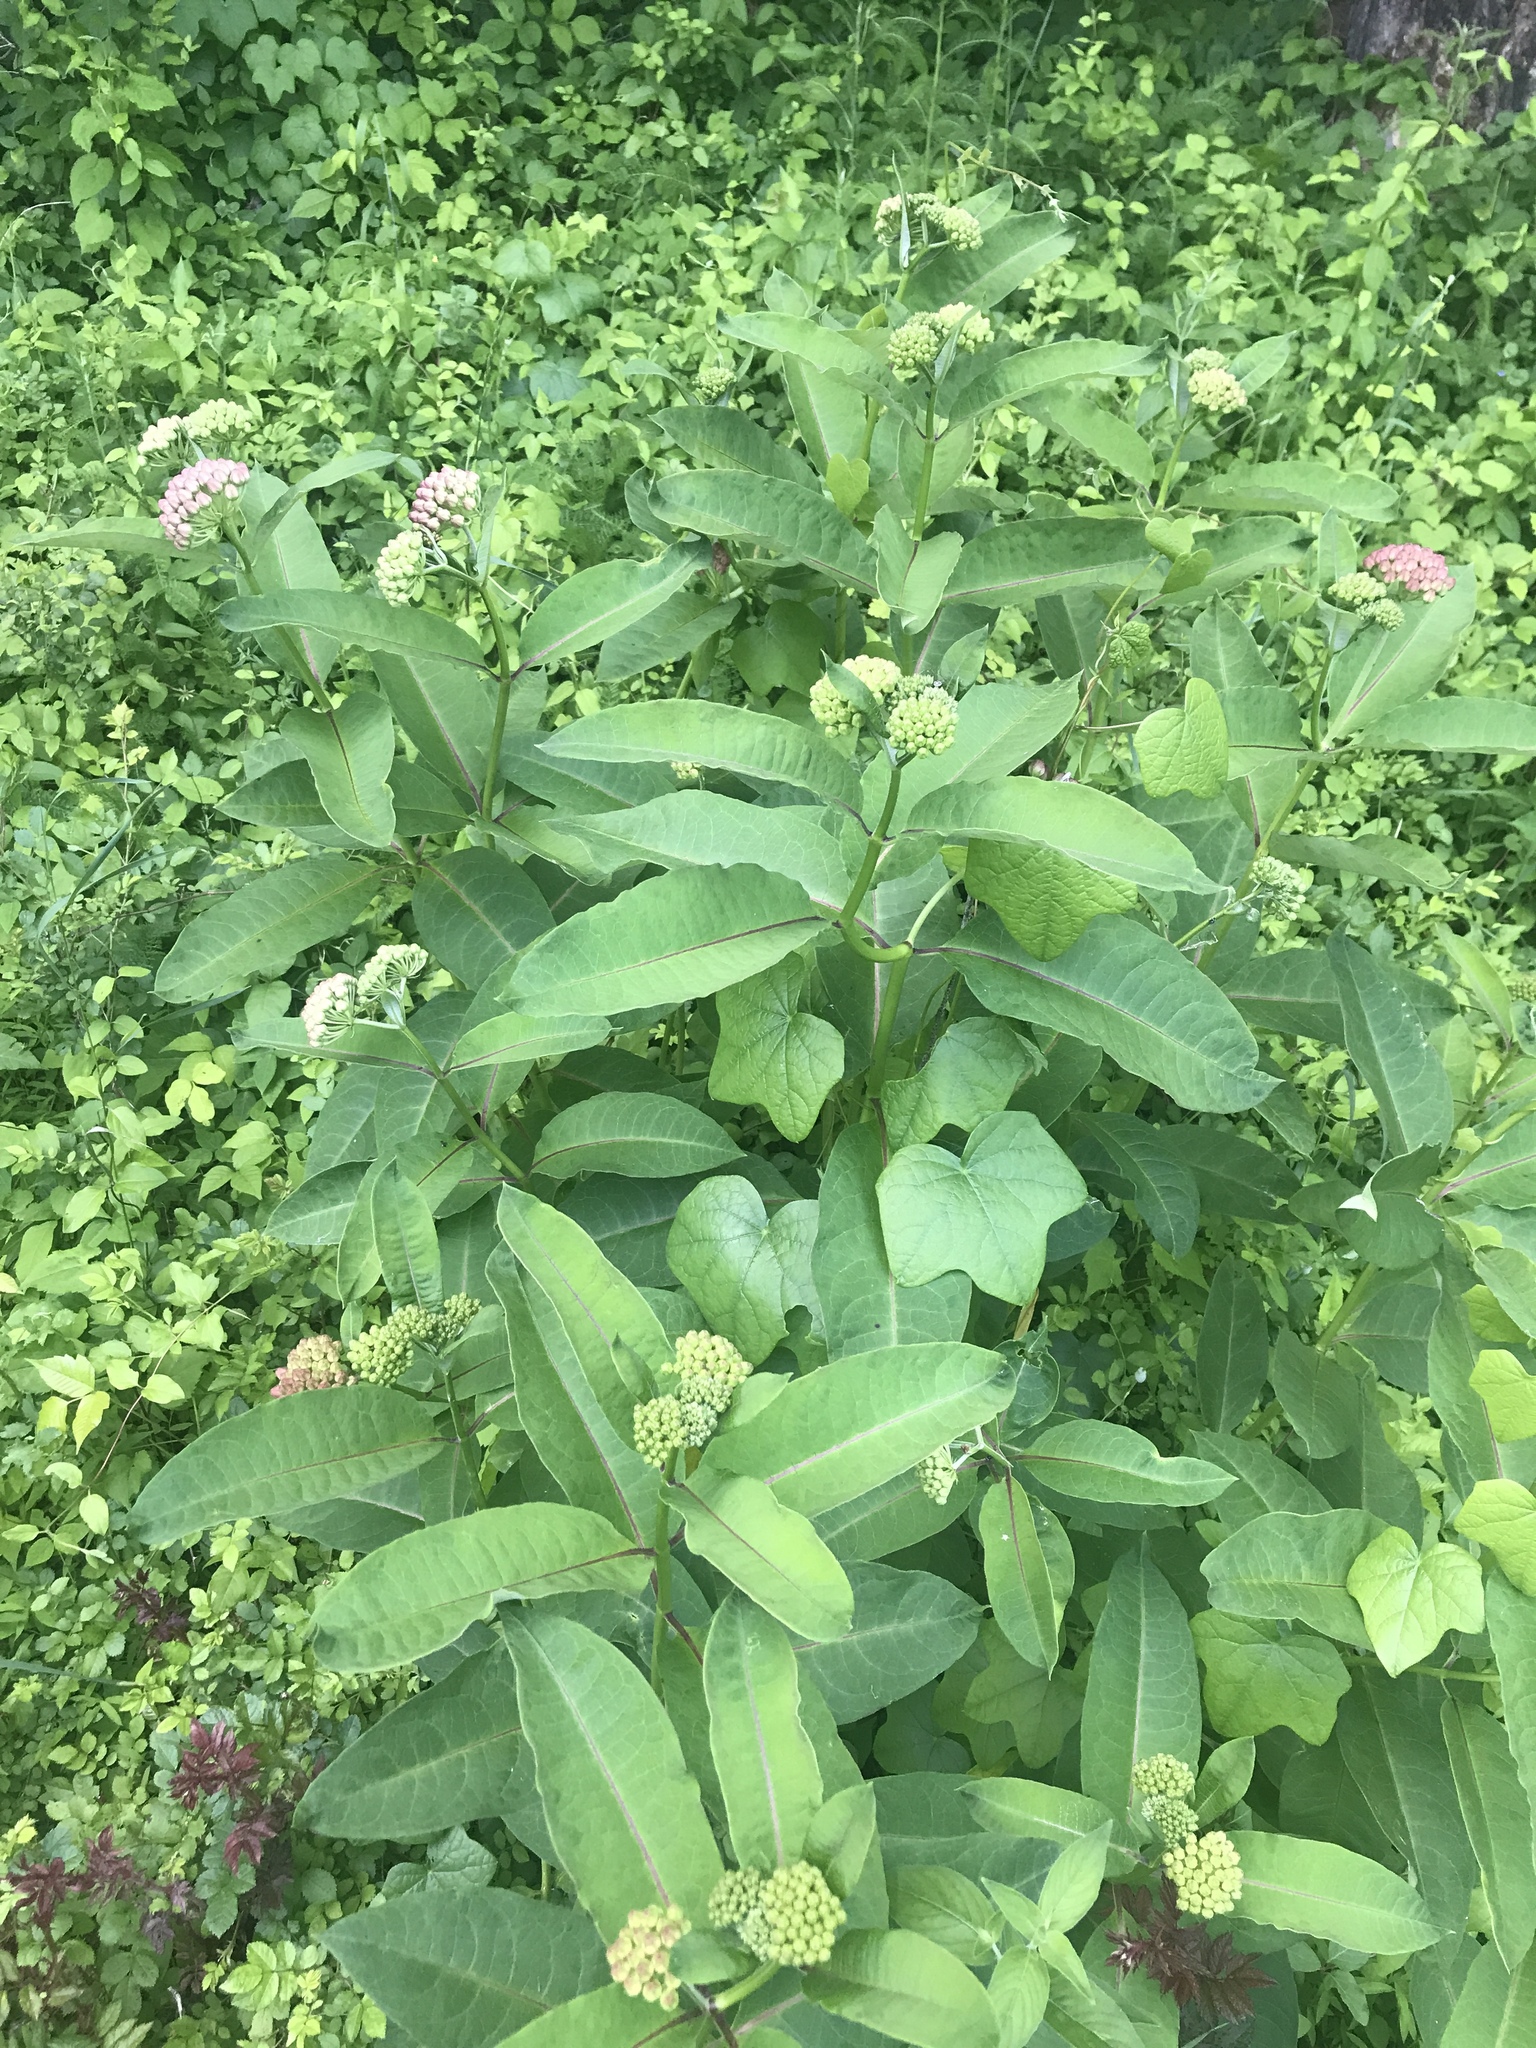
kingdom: Plantae
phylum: Tracheophyta
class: Magnoliopsida
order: Gentianales
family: Apocynaceae
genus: Asclepias
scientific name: Asclepias syriaca
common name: Common milkweed
